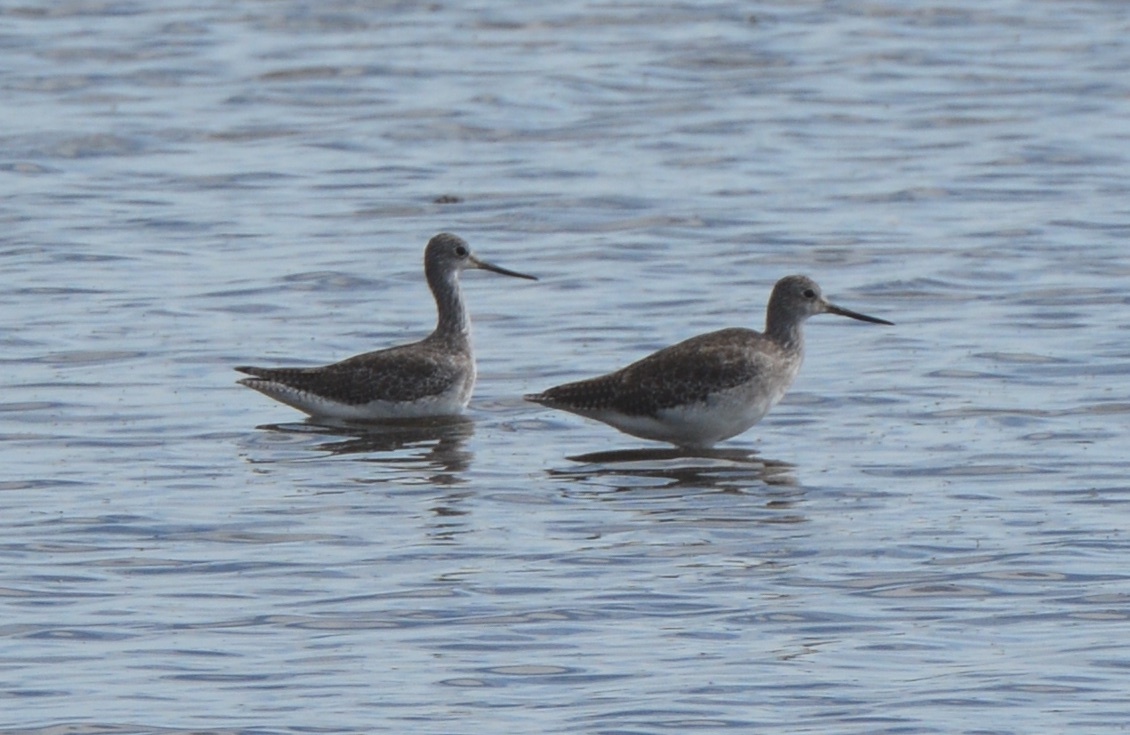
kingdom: Animalia
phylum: Chordata
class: Aves
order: Charadriiformes
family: Scolopacidae
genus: Tringa
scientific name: Tringa melanoleuca
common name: Greater yellowlegs
